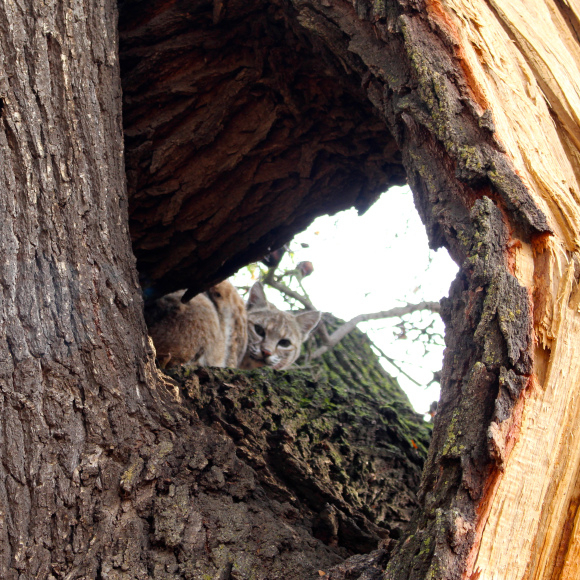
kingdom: Animalia
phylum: Chordata
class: Mammalia
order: Carnivora
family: Felidae
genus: Lynx
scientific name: Lynx rufus
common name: Bobcat
